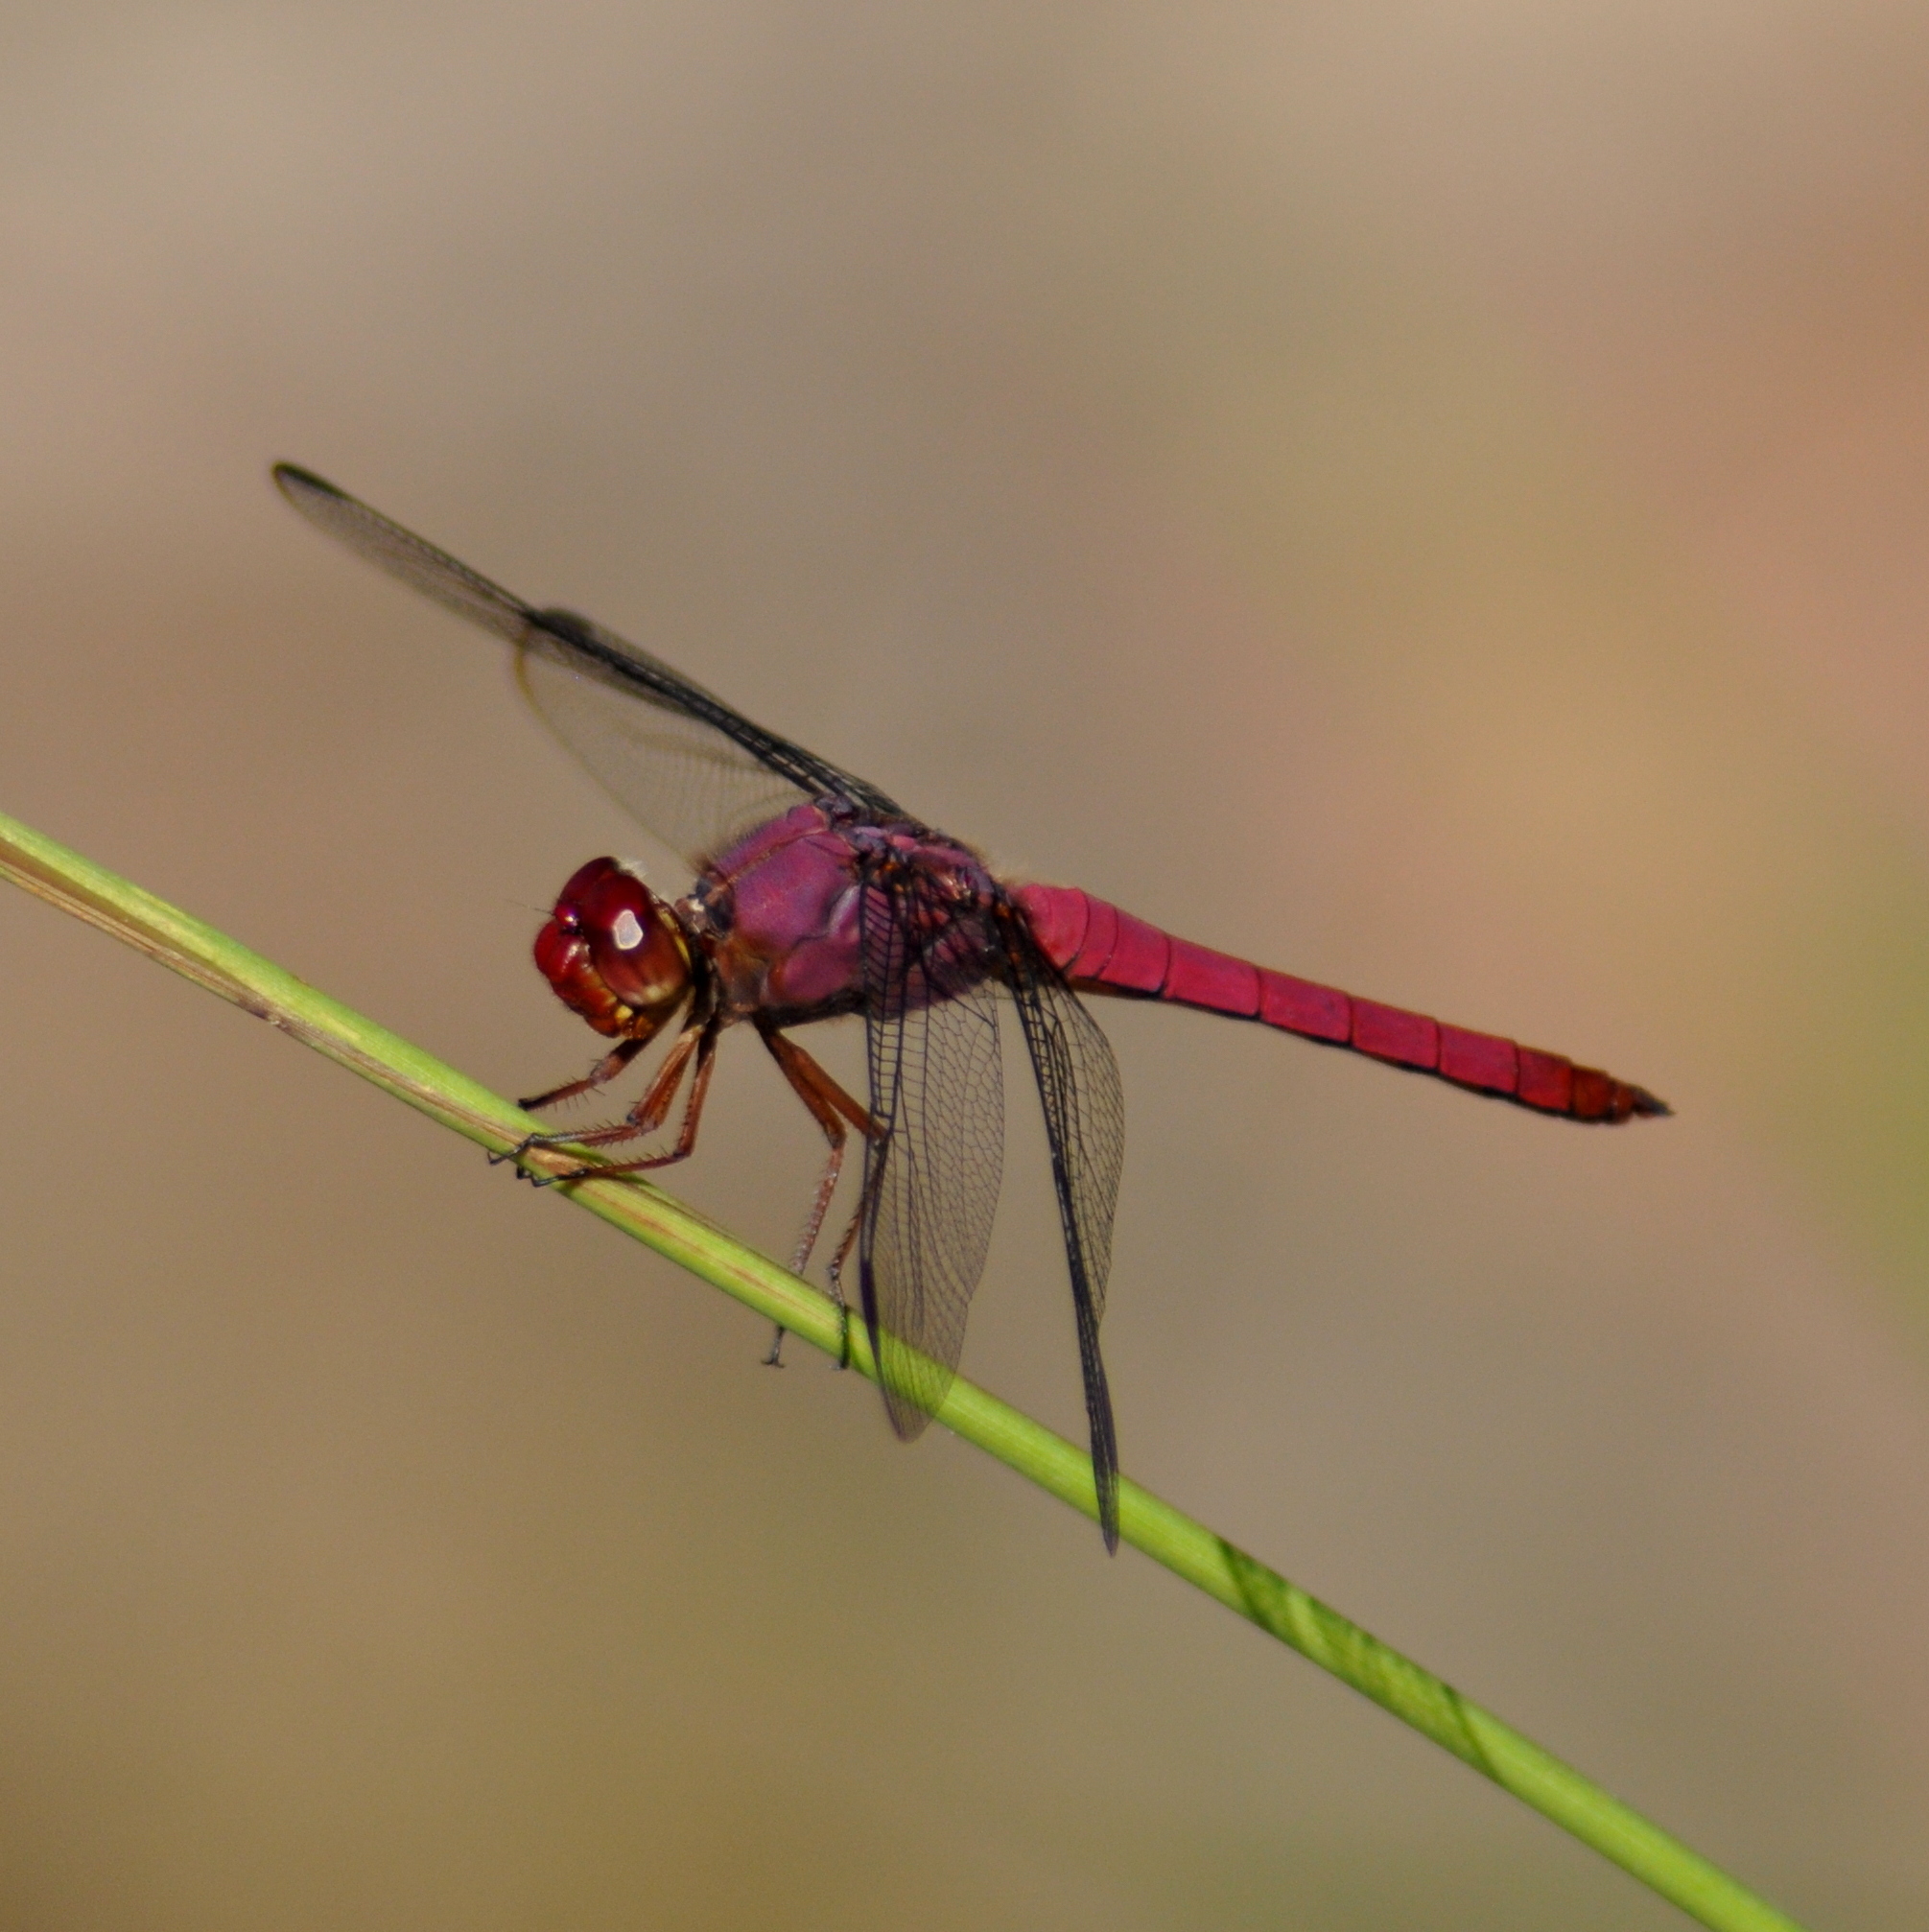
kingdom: Animalia
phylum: Arthropoda
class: Insecta
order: Odonata
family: Libellulidae
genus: Orthemis
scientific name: Orthemis discolor
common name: Carmine skimmer
